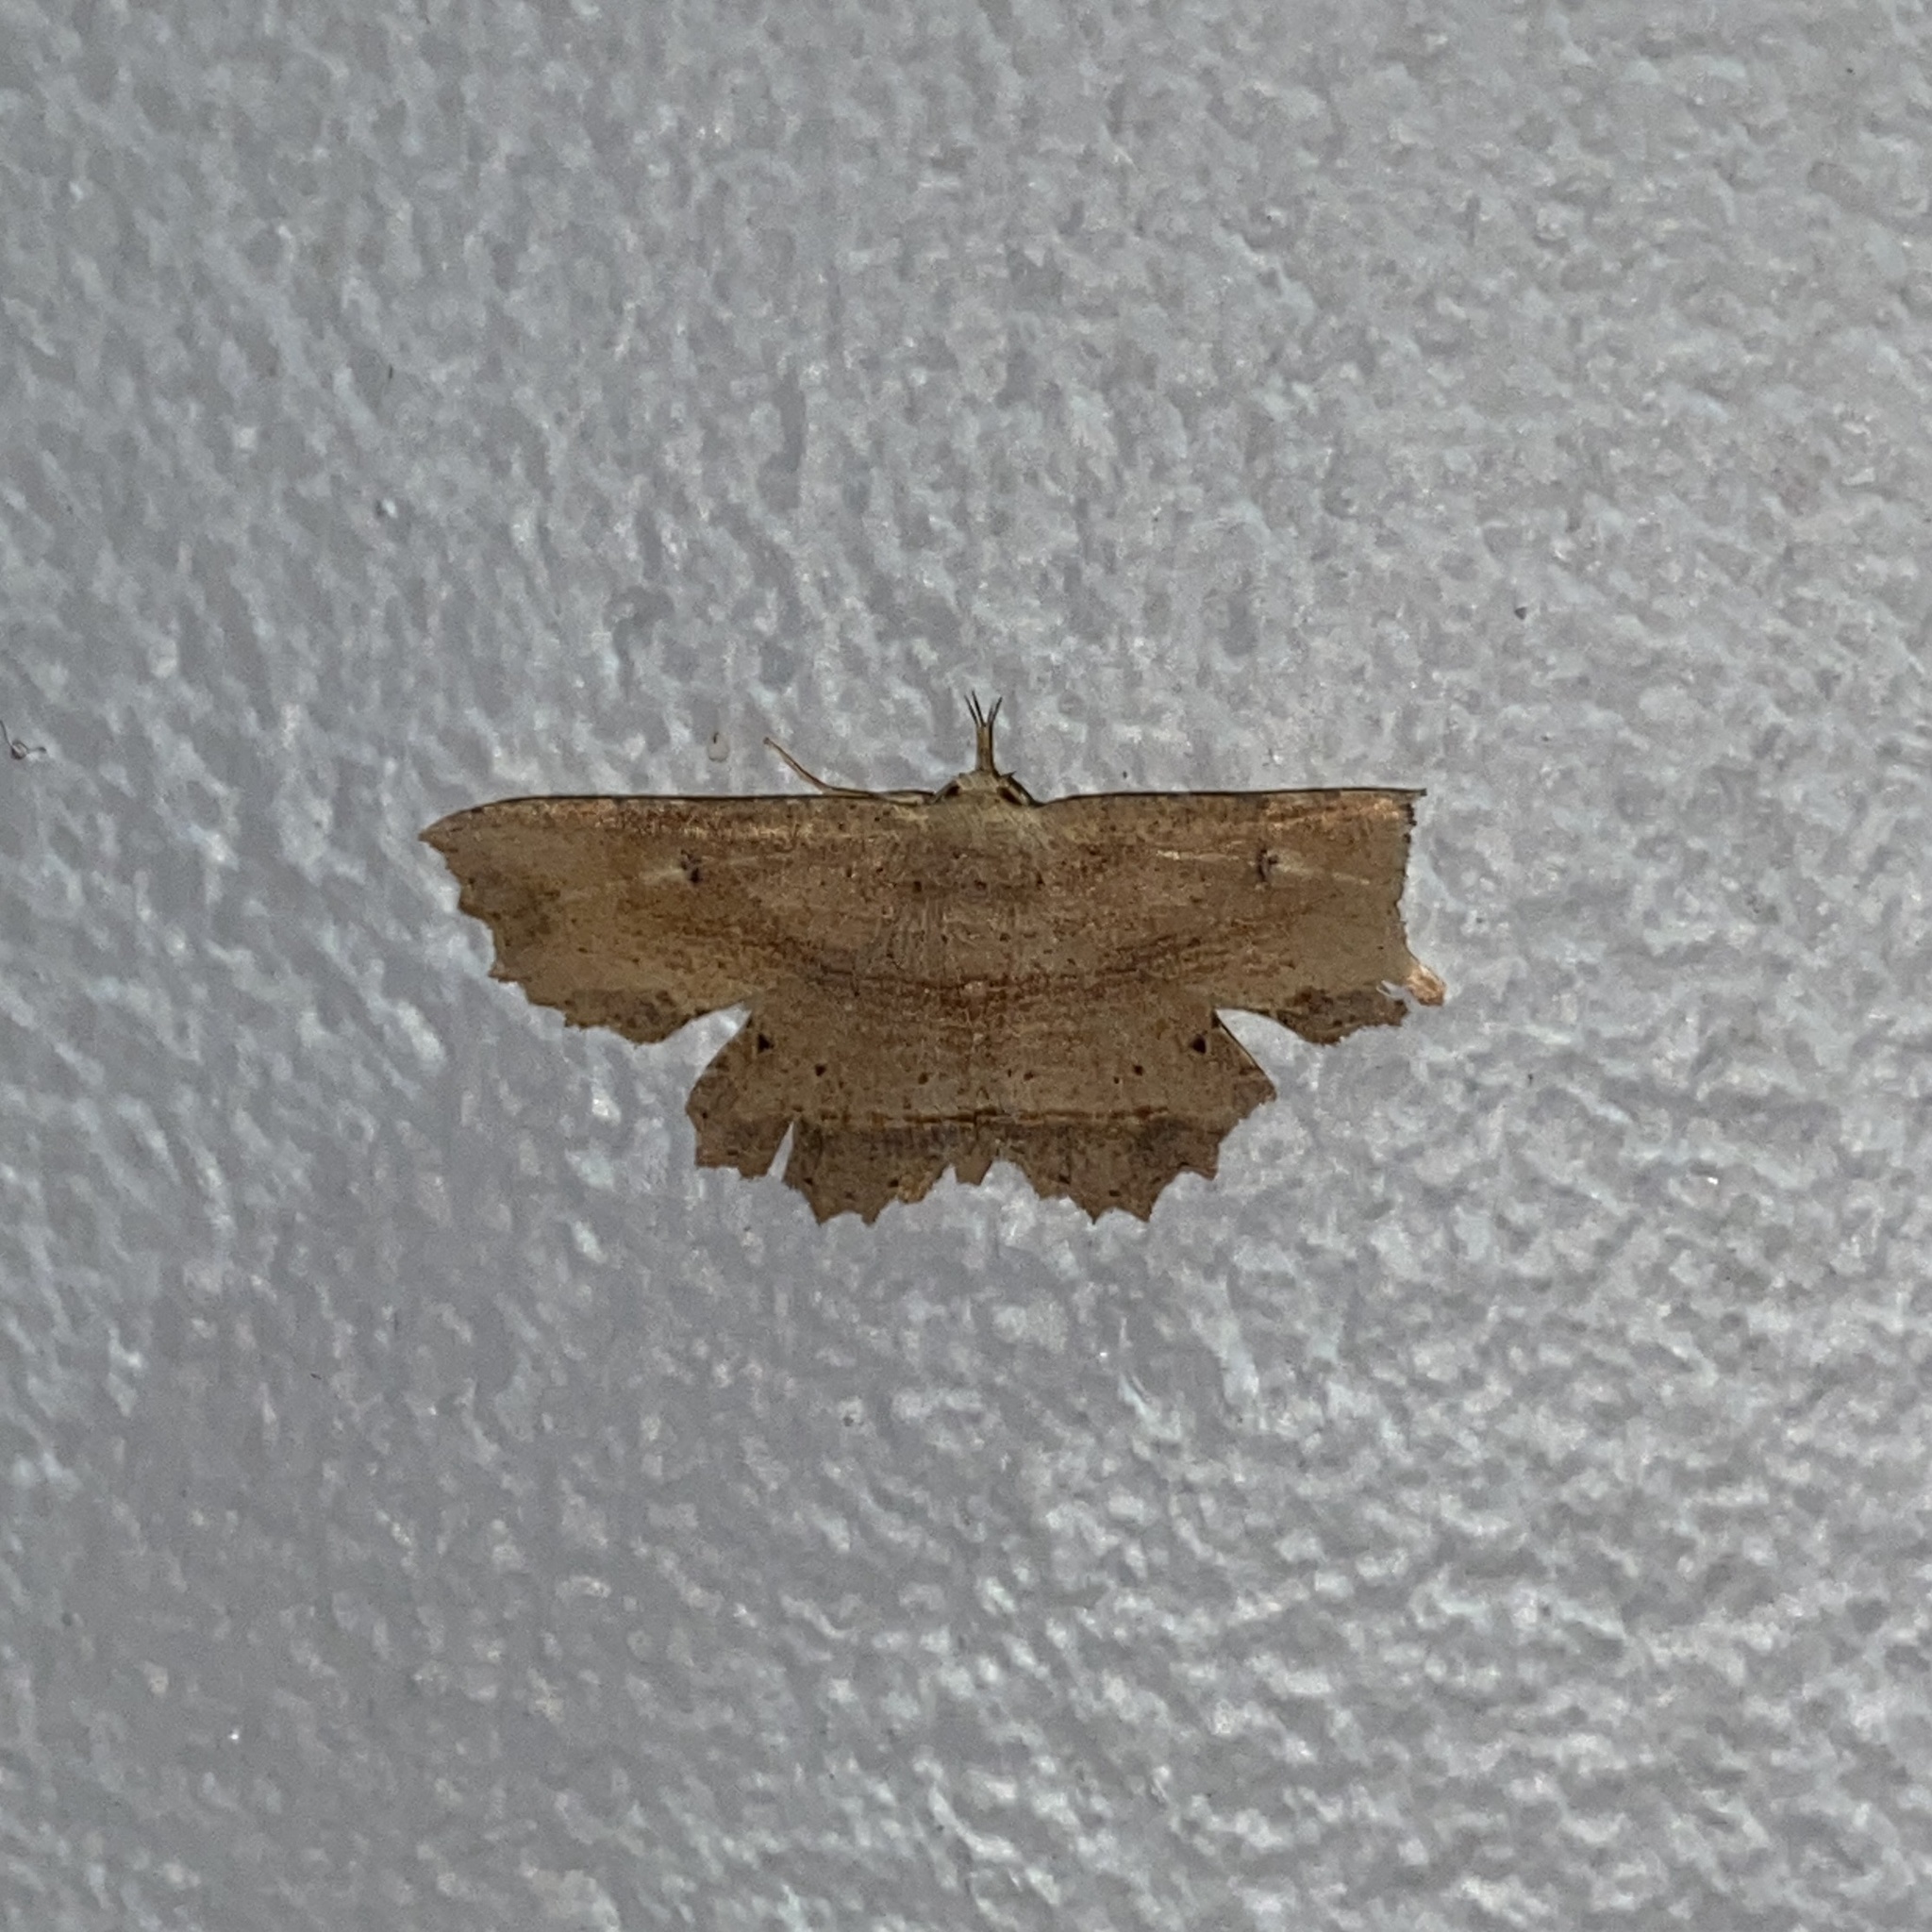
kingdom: Animalia
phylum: Arthropoda
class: Insecta
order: Lepidoptera
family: Erebidae
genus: Oroscopa
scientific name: Oroscopa abluta
